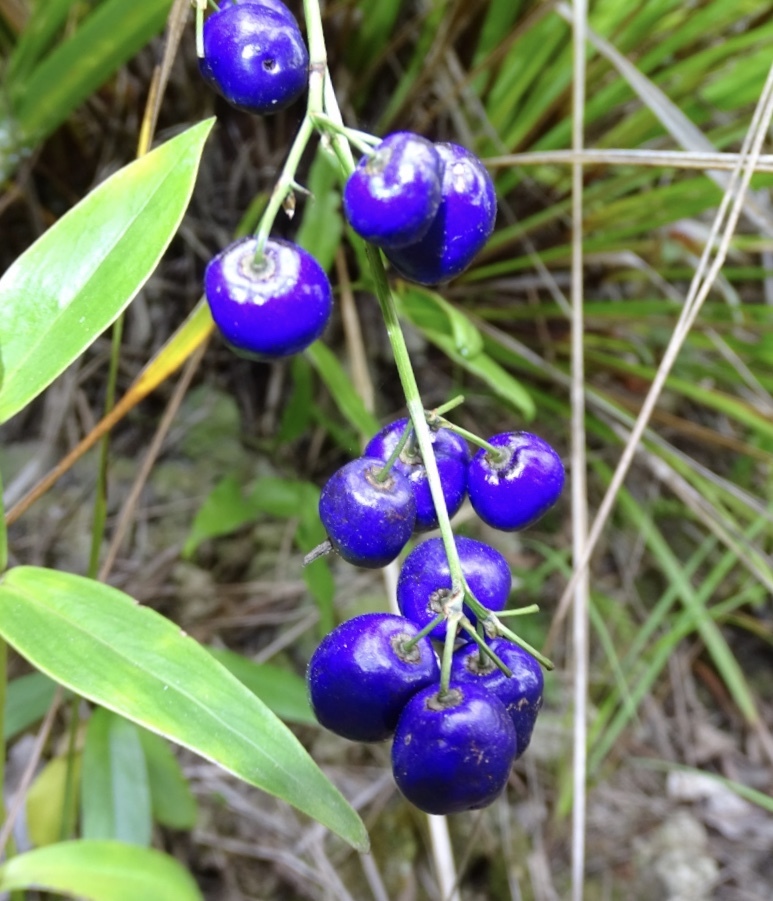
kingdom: Plantae
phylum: Tracheophyta
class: Liliopsida
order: Asparagales
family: Asphodelaceae
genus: Dianella
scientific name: Dianella ensifolia
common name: New zealand lilyplant
